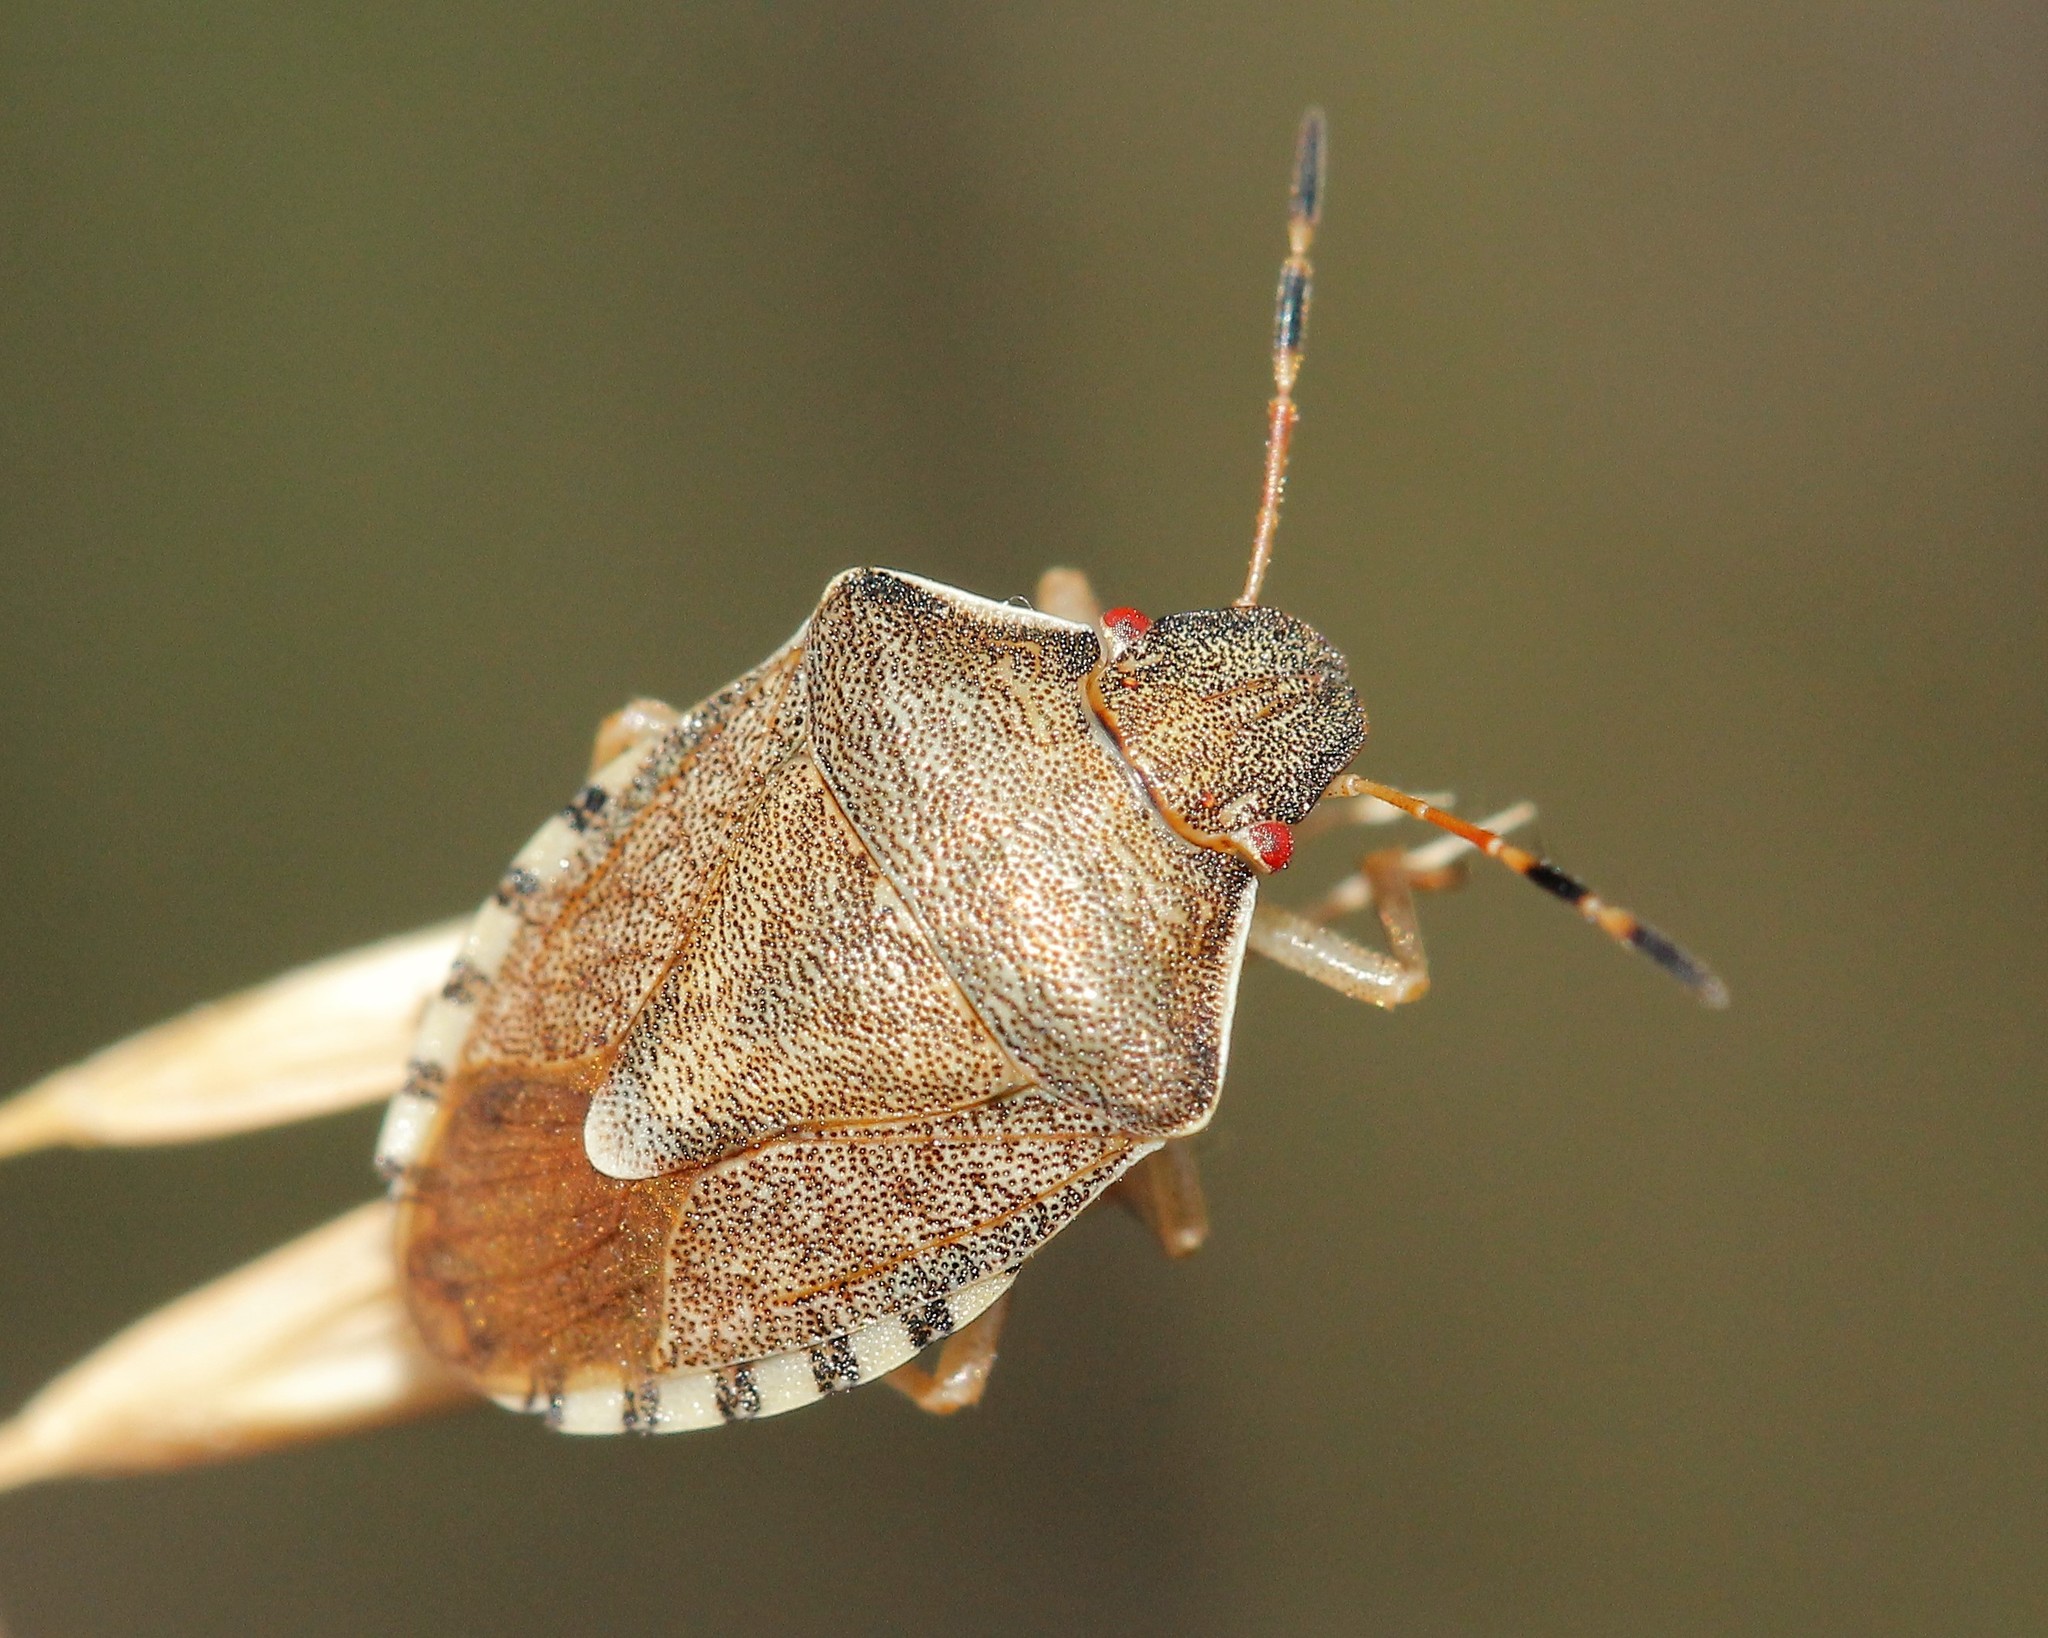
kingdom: Animalia
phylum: Arthropoda
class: Insecta
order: Hemiptera
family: Pentatomidae
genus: Holcostethus
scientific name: Holcostethus strictus
